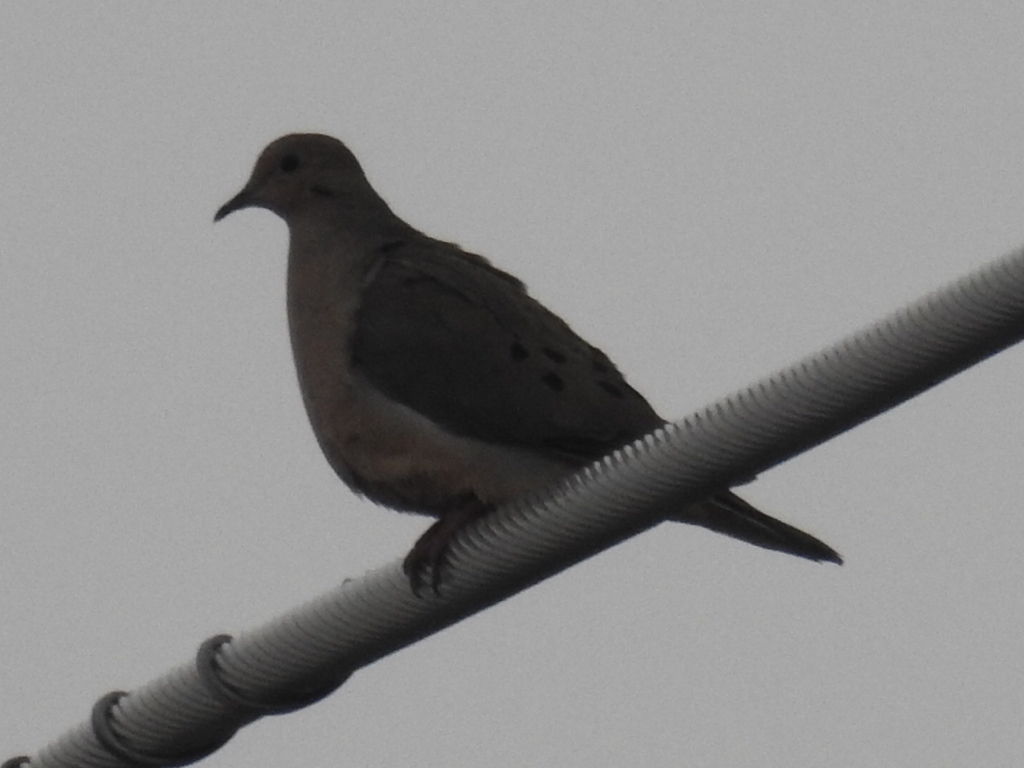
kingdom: Animalia
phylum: Chordata
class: Aves
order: Columbiformes
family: Columbidae
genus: Zenaida
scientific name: Zenaida macroura
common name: Mourning dove
